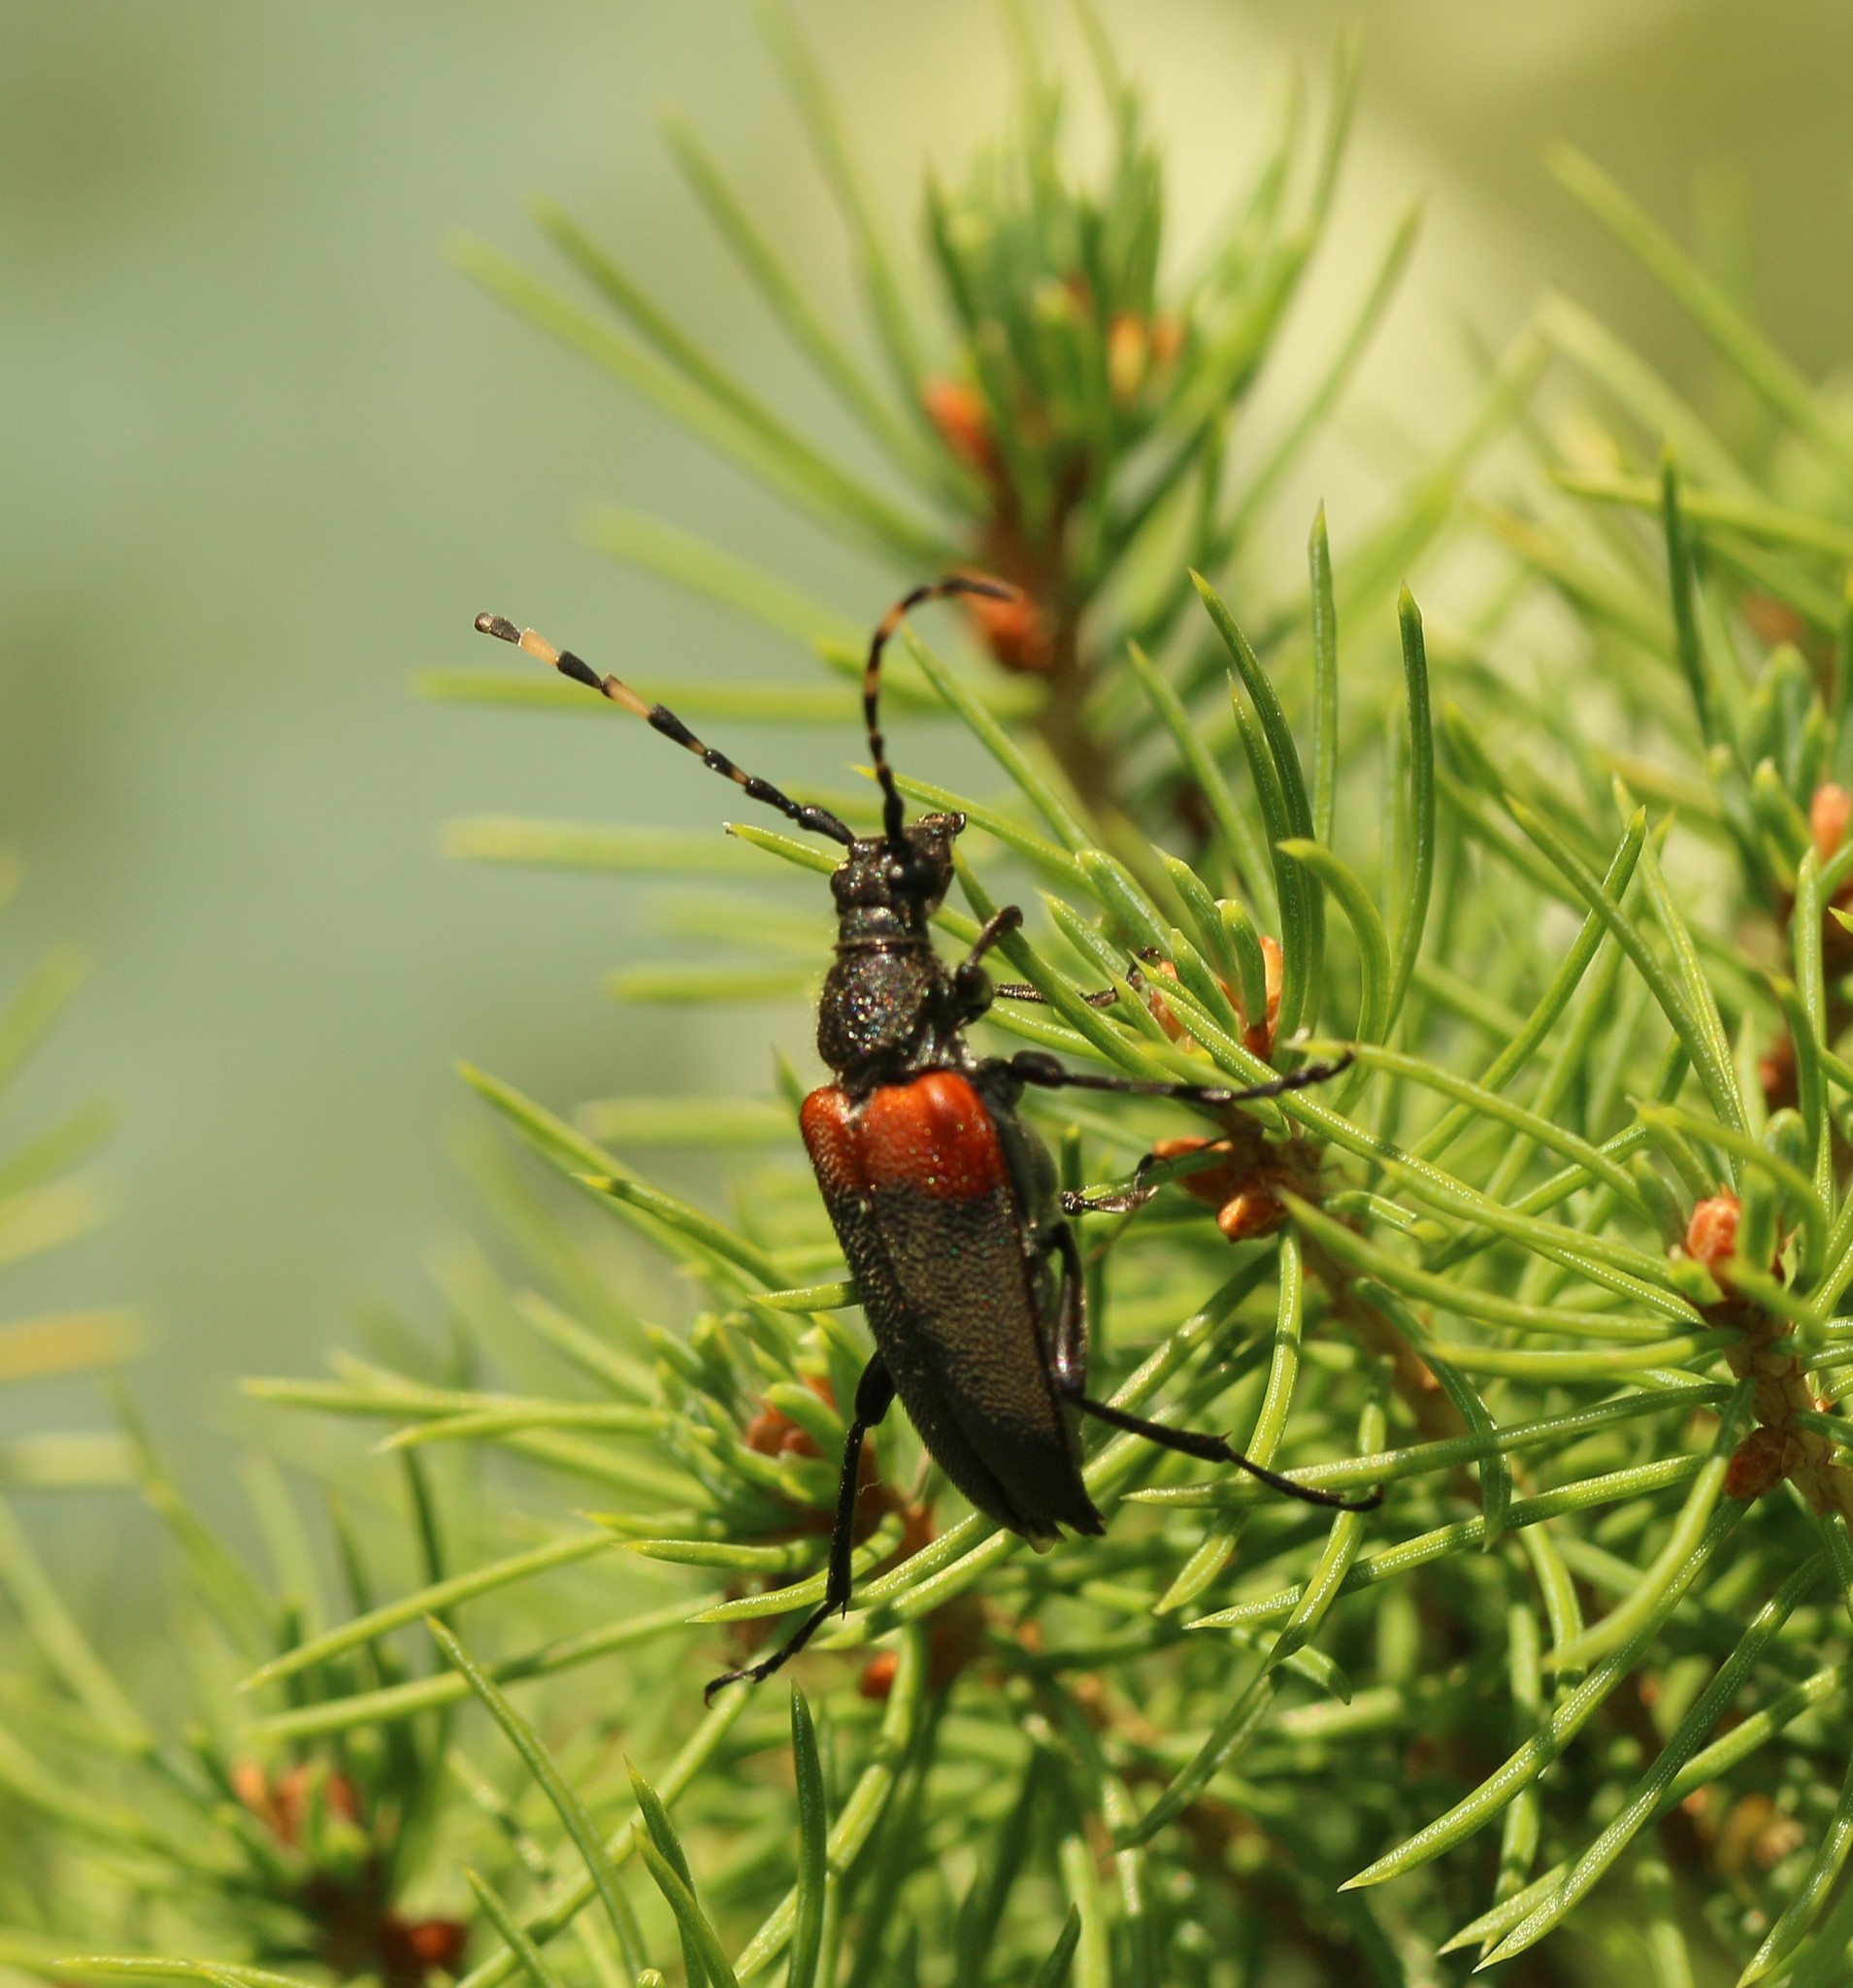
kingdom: Animalia
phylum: Arthropoda
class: Insecta
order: Coleoptera
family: Cerambycidae
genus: Stictoleptura
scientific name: Stictoleptura canadensis
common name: Red-shouldered pine borer
